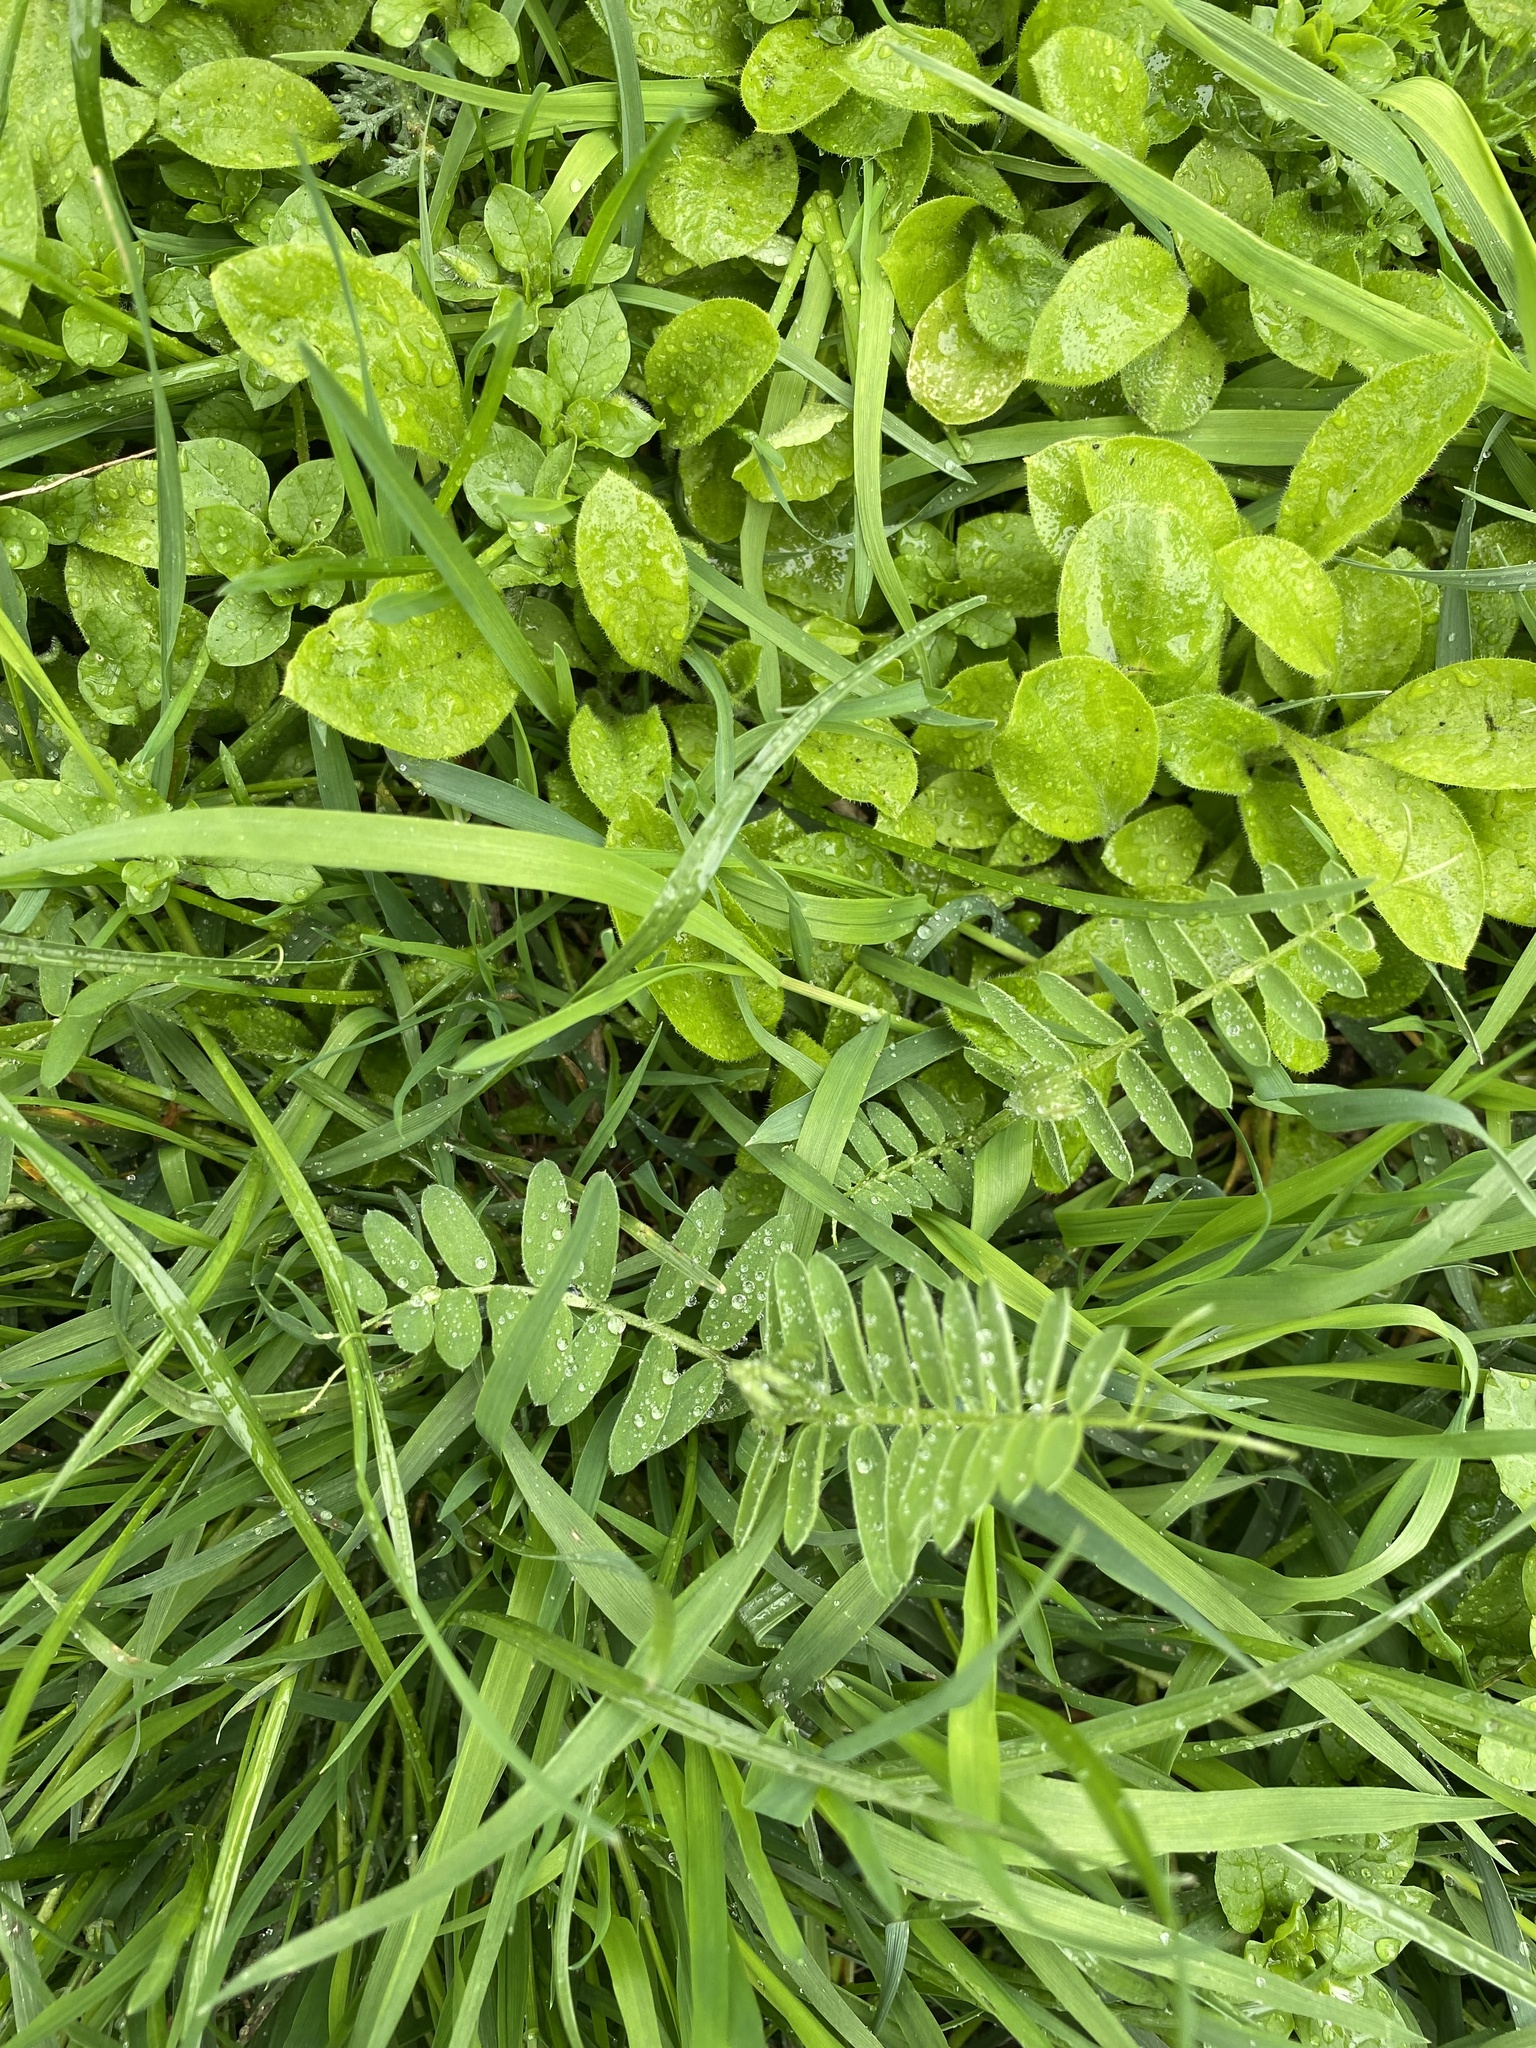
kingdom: Plantae
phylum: Tracheophyta
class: Magnoliopsida
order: Fabales
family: Fabaceae
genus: Vicia
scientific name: Vicia cracca
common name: Bird vetch
